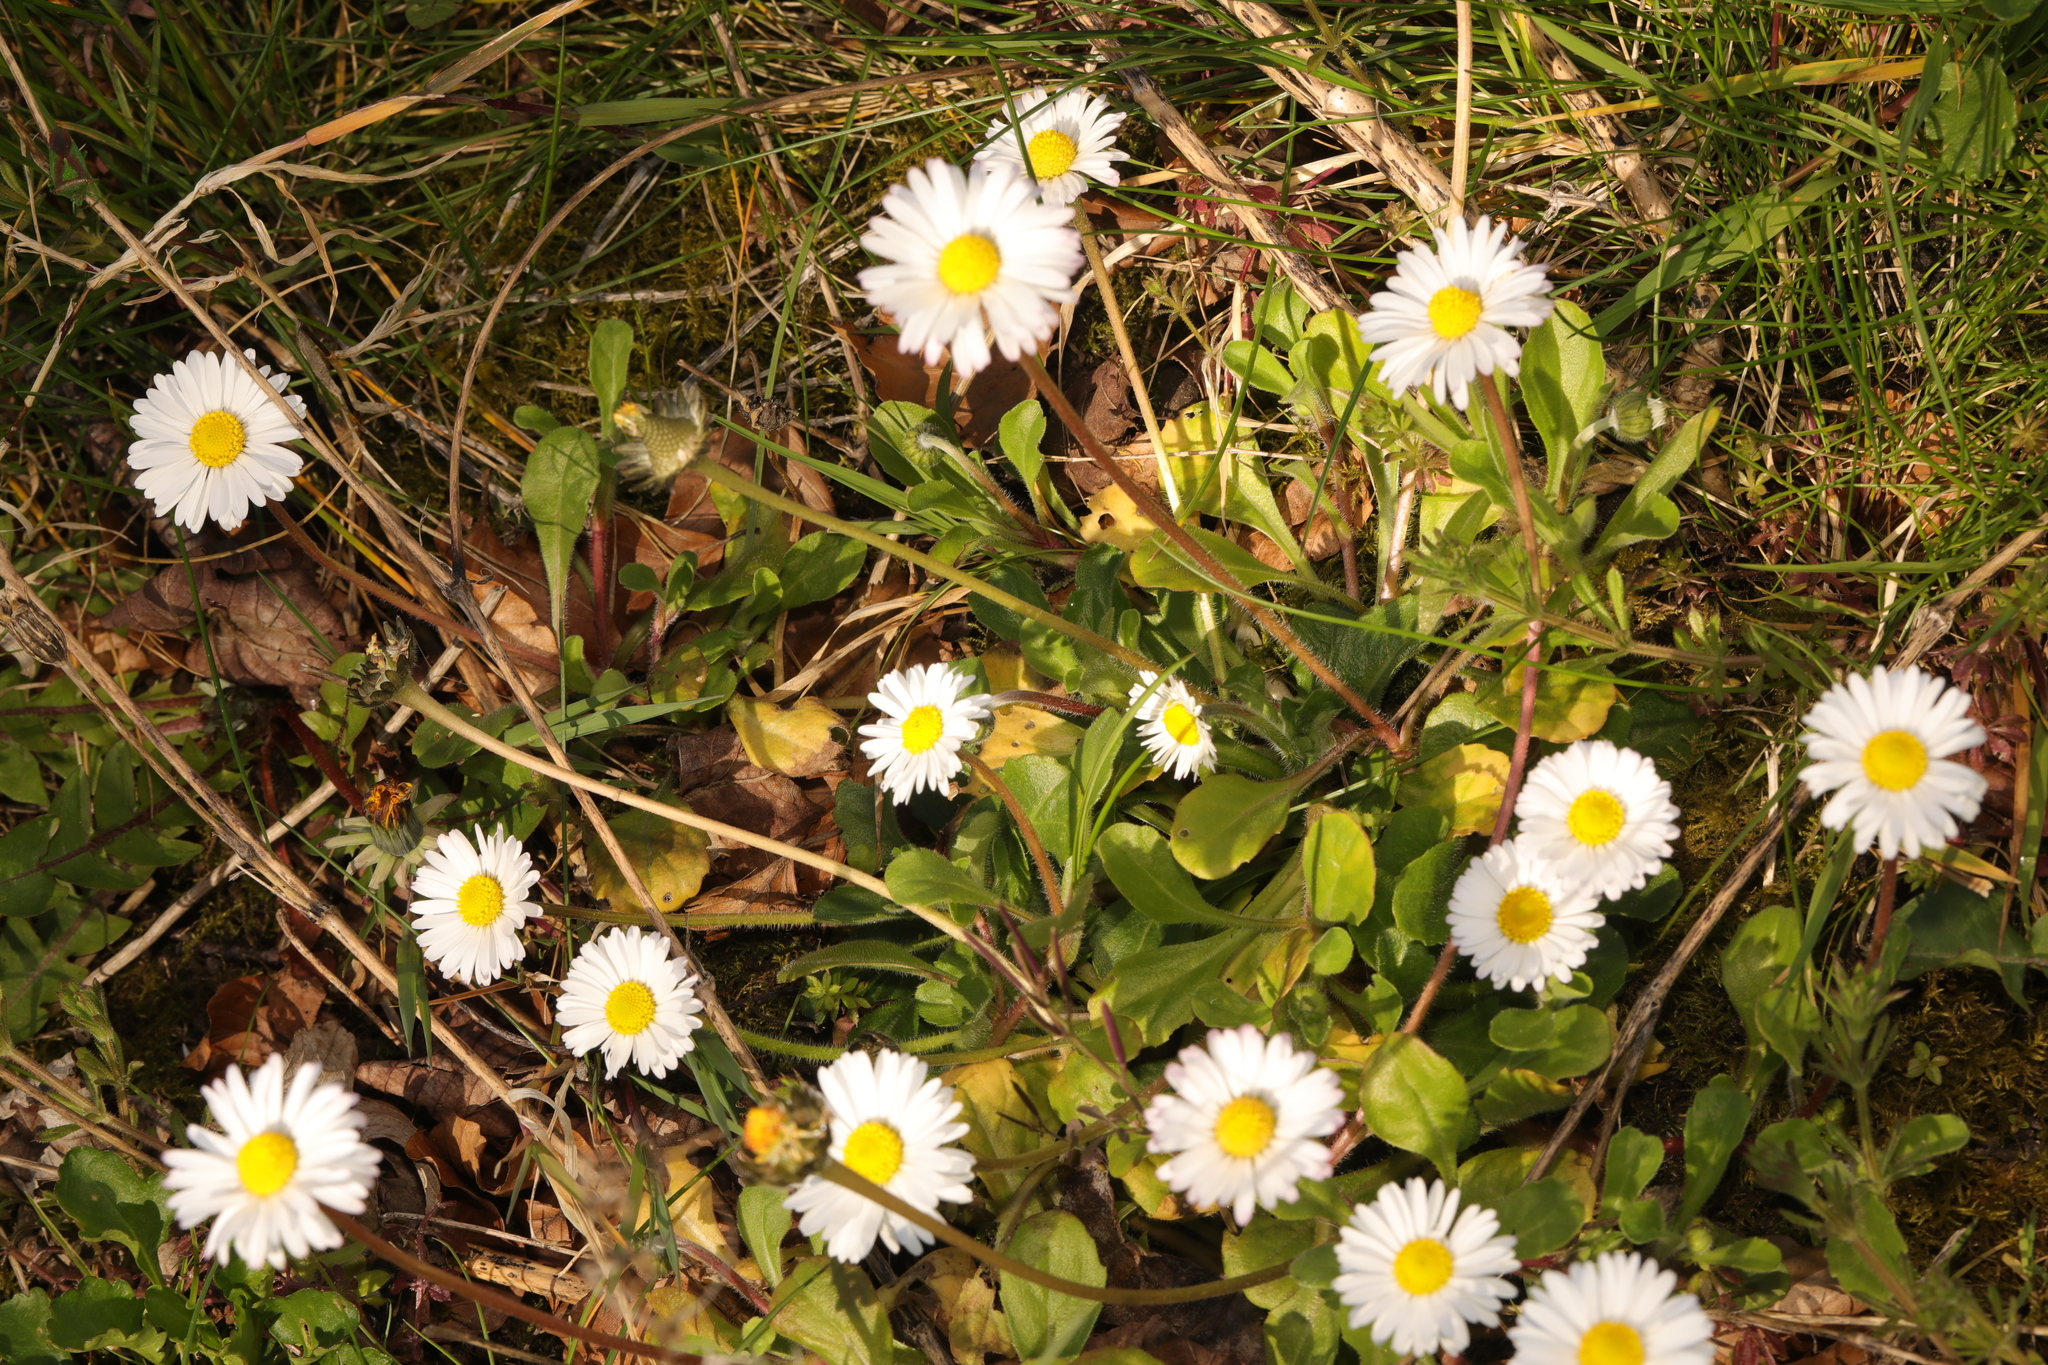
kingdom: Plantae
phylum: Tracheophyta
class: Magnoliopsida
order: Asterales
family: Asteraceae
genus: Bellis
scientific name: Bellis perennis
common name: Lawndaisy
